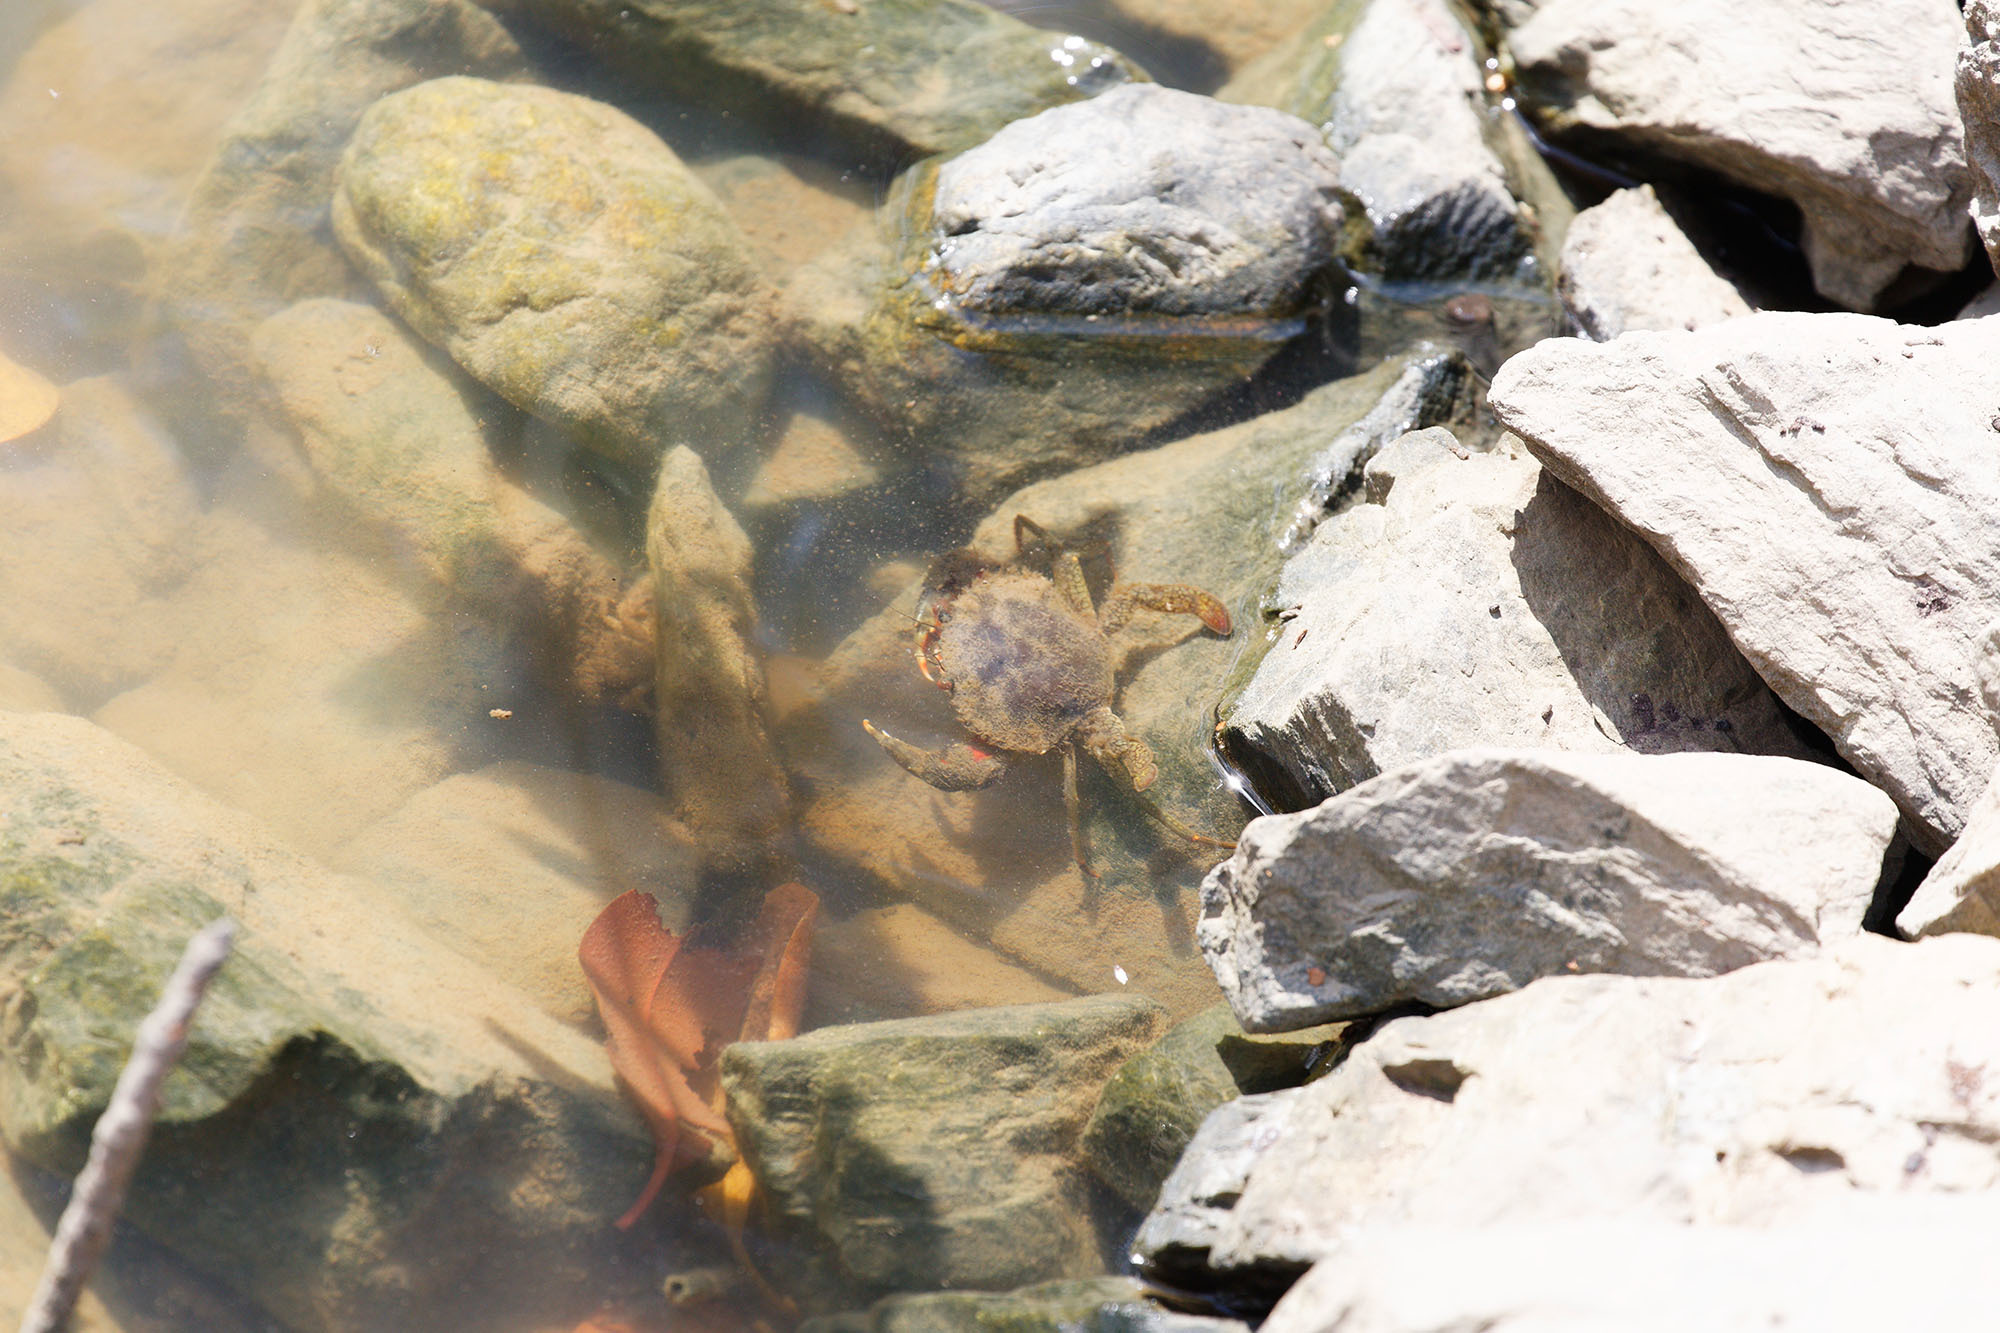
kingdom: Animalia
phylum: Arthropoda
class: Malacostraca
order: Decapoda
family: Portunidae
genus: Scylla
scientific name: Scylla serrata
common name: Giant mud crab
